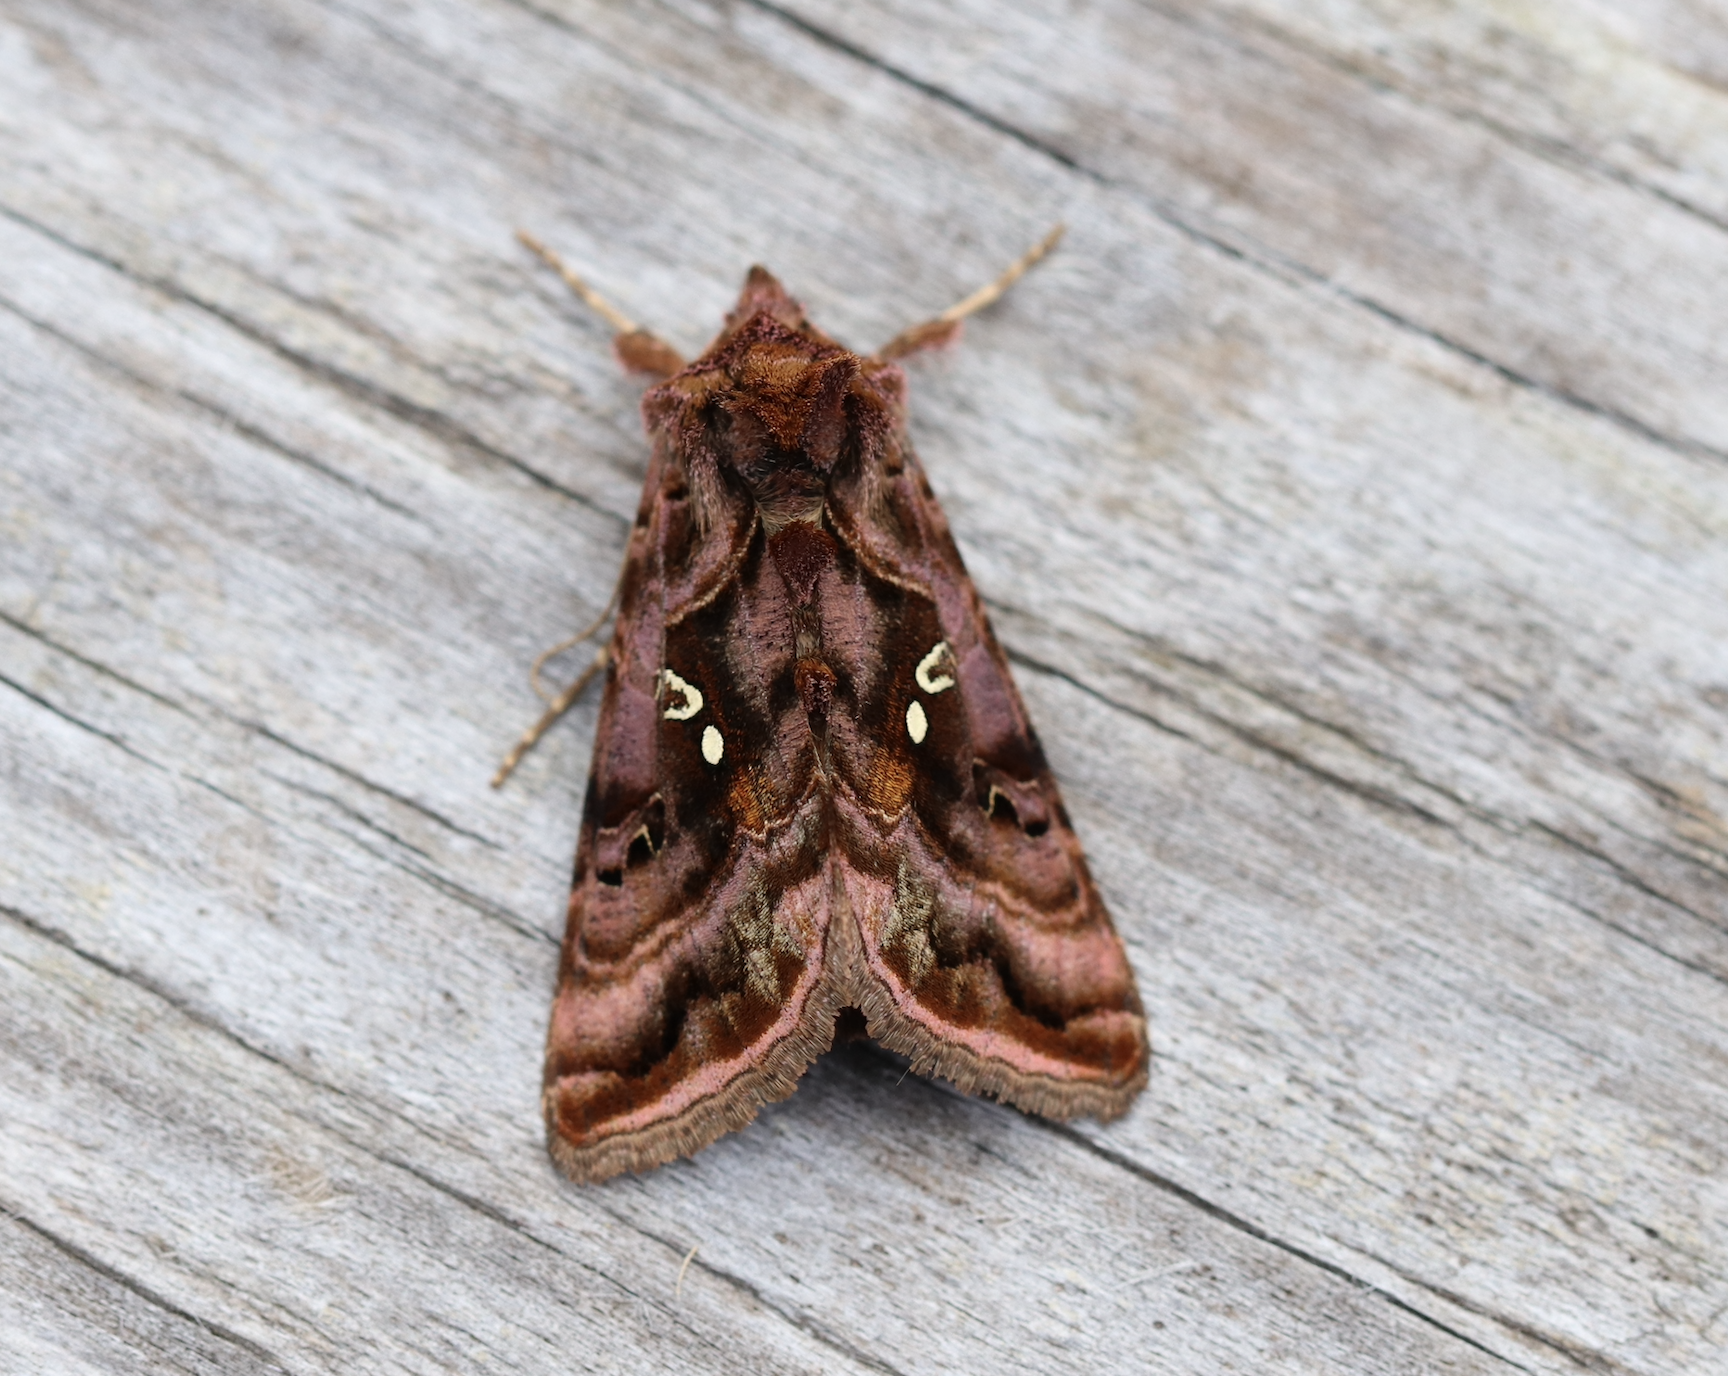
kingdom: Animalia
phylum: Arthropoda
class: Insecta
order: Lepidoptera
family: Noctuidae
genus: Autographa
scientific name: Autographa pulchrina
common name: Beautiful golden y
